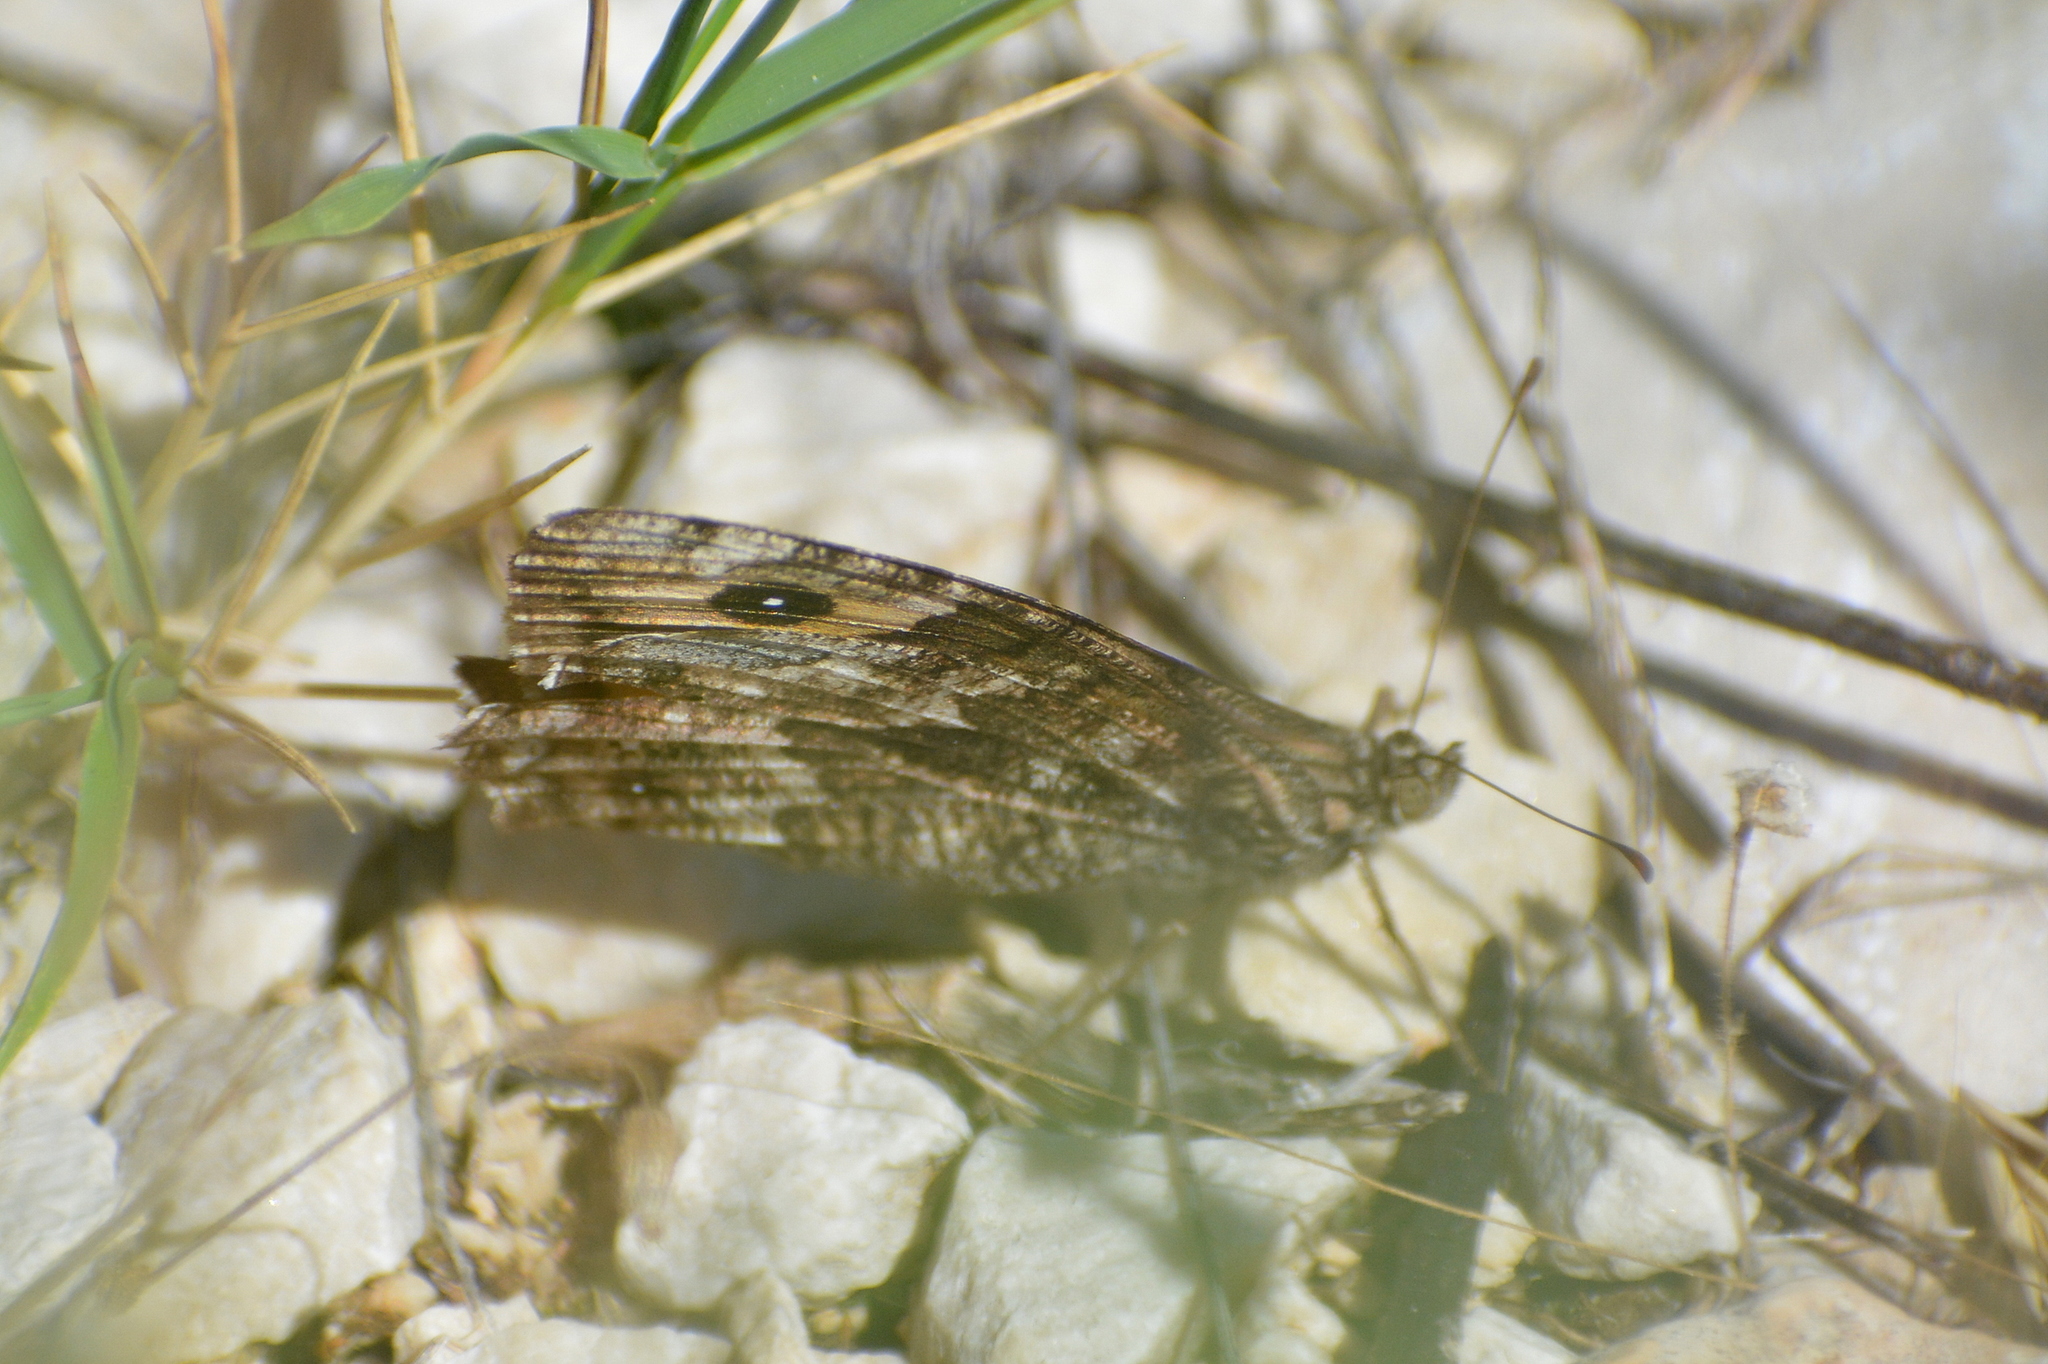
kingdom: Animalia
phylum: Arthropoda
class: Insecta
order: Lepidoptera
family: Nymphalidae
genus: Hipparchia
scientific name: Hipparchia semele
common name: Grayling
